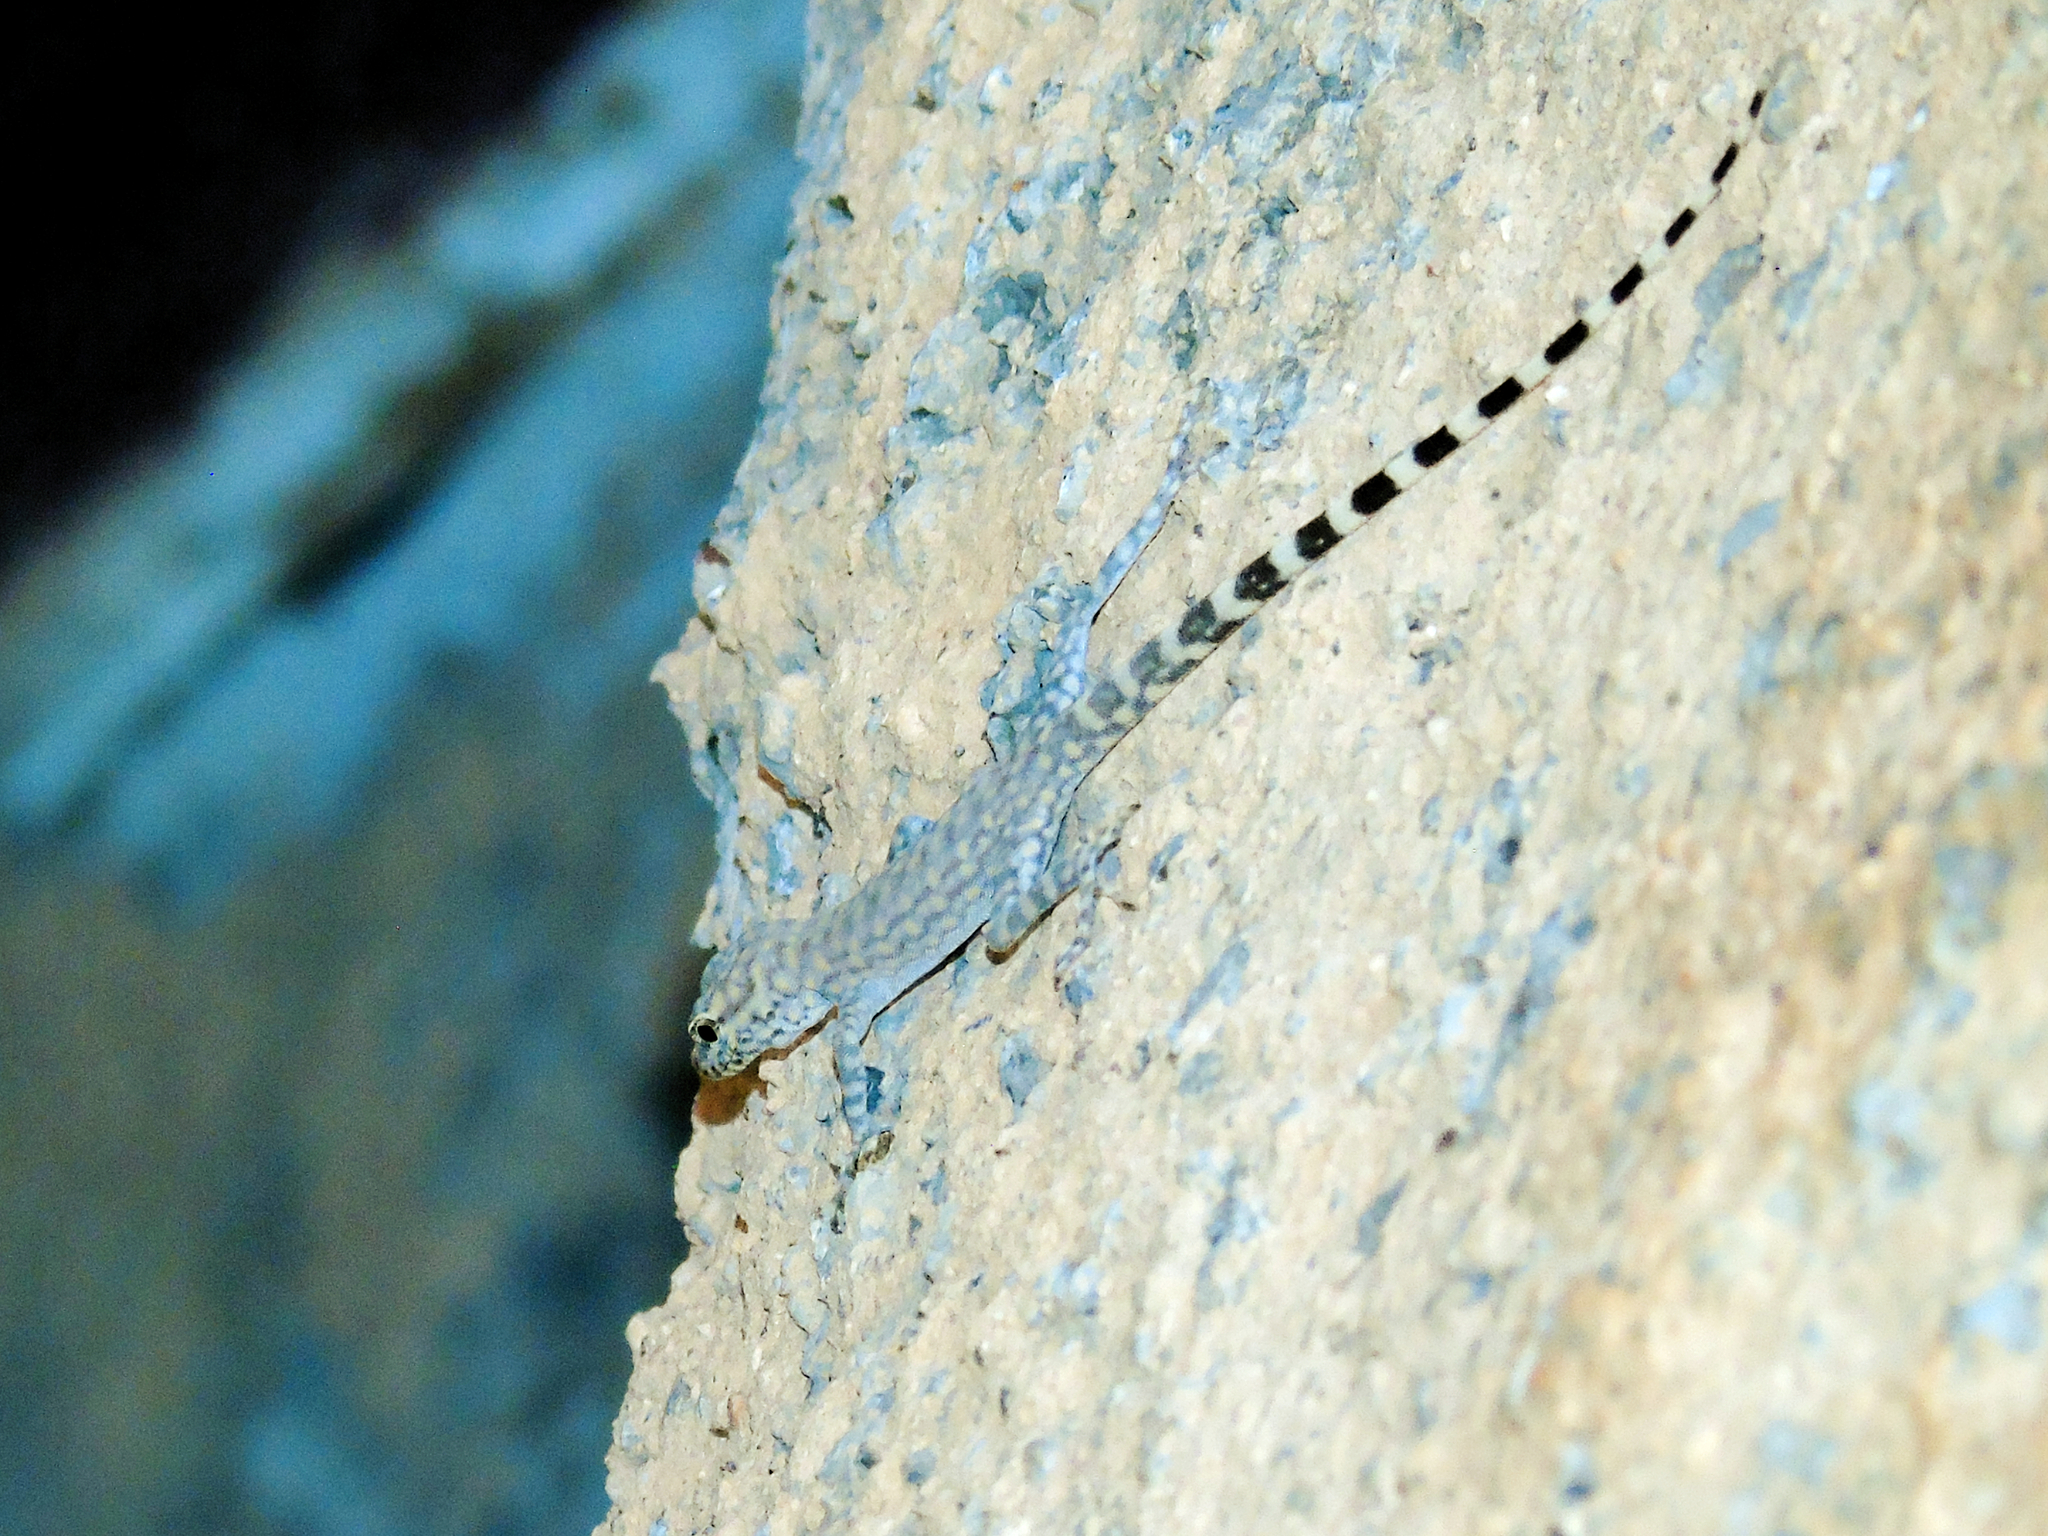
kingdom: Animalia
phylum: Chordata
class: Squamata
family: Sphaerodactylidae
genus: Pristurus
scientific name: Pristurus celerrimus
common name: Bar-tailed semaphore gecko
